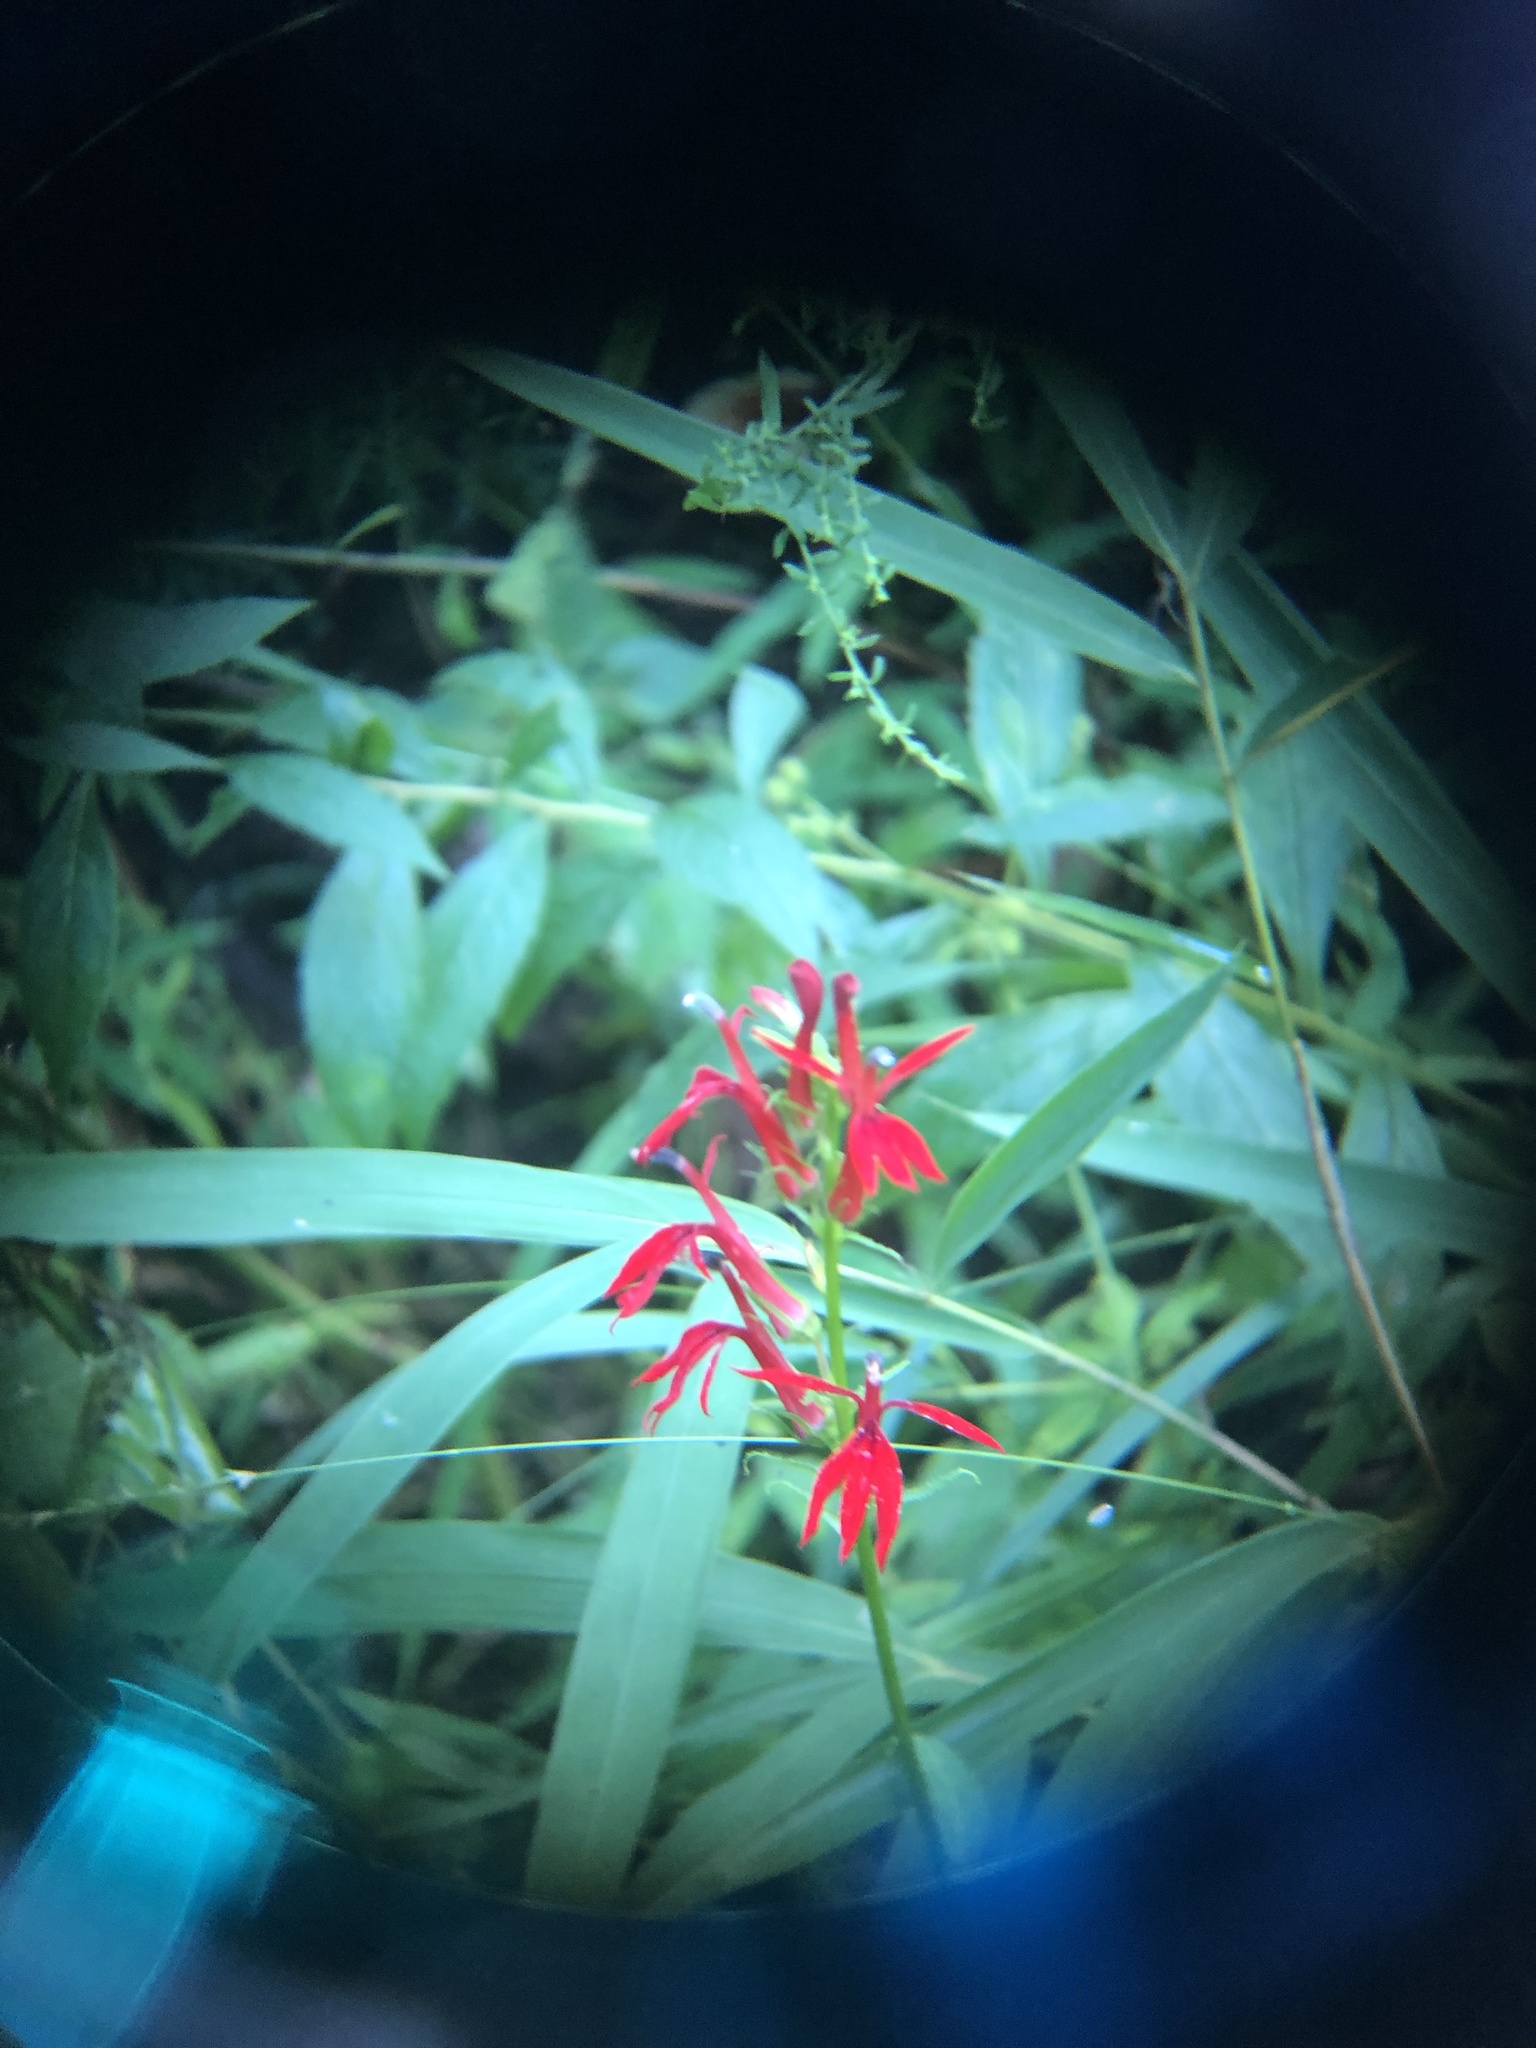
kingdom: Plantae
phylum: Tracheophyta
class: Magnoliopsida
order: Asterales
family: Campanulaceae
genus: Lobelia
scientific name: Lobelia cardinalis
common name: Cardinal flower
